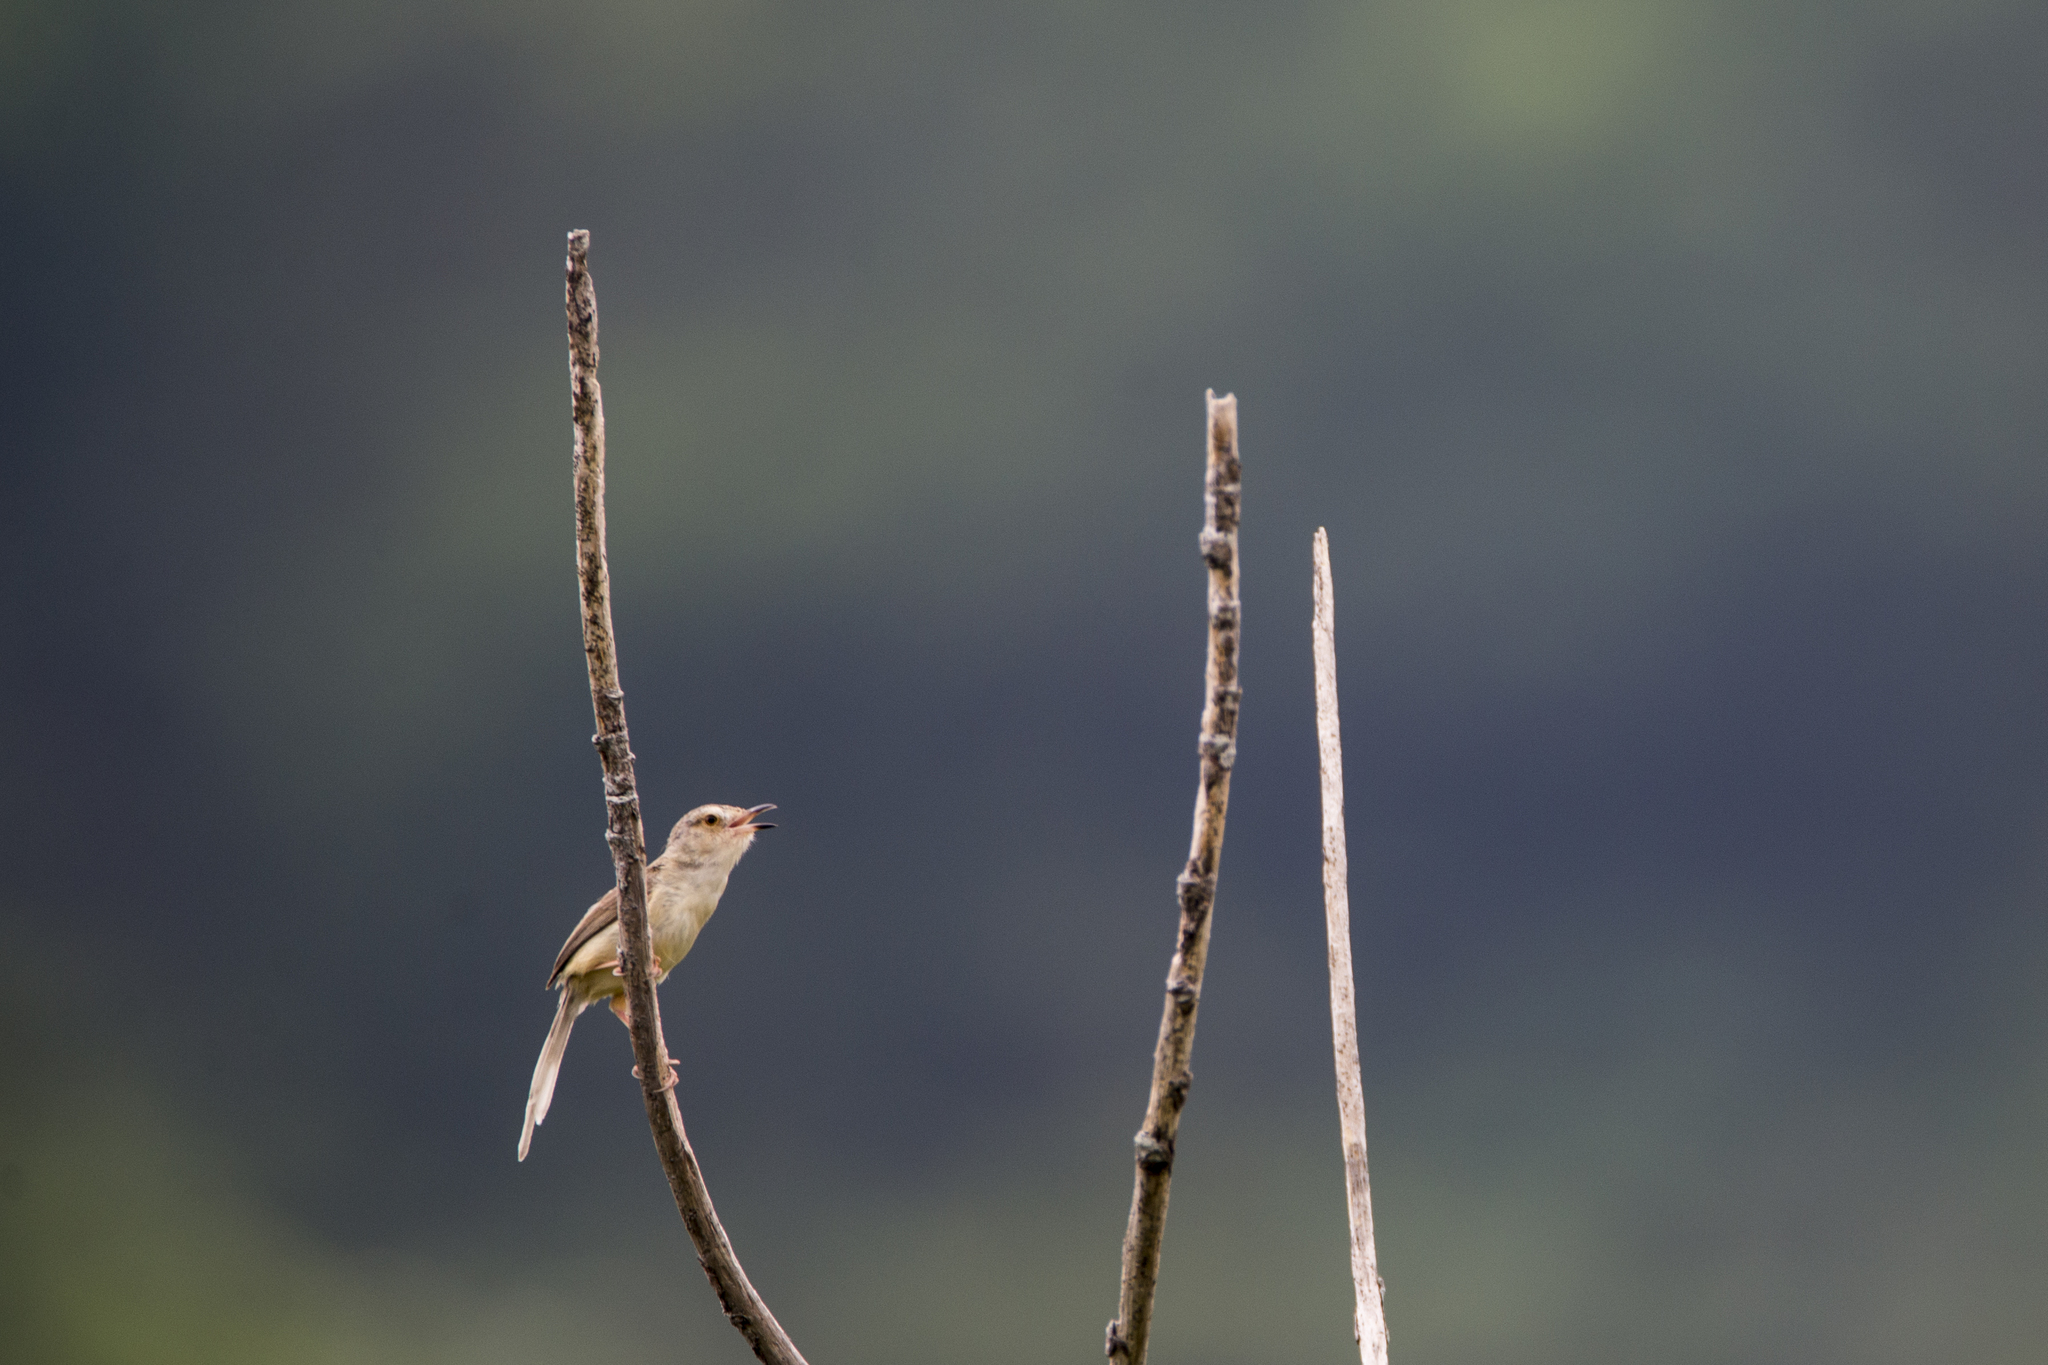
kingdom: Animalia
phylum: Chordata
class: Aves
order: Passeriformes
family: Cisticolidae
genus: Prinia
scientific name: Prinia inornata
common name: Plain prinia
